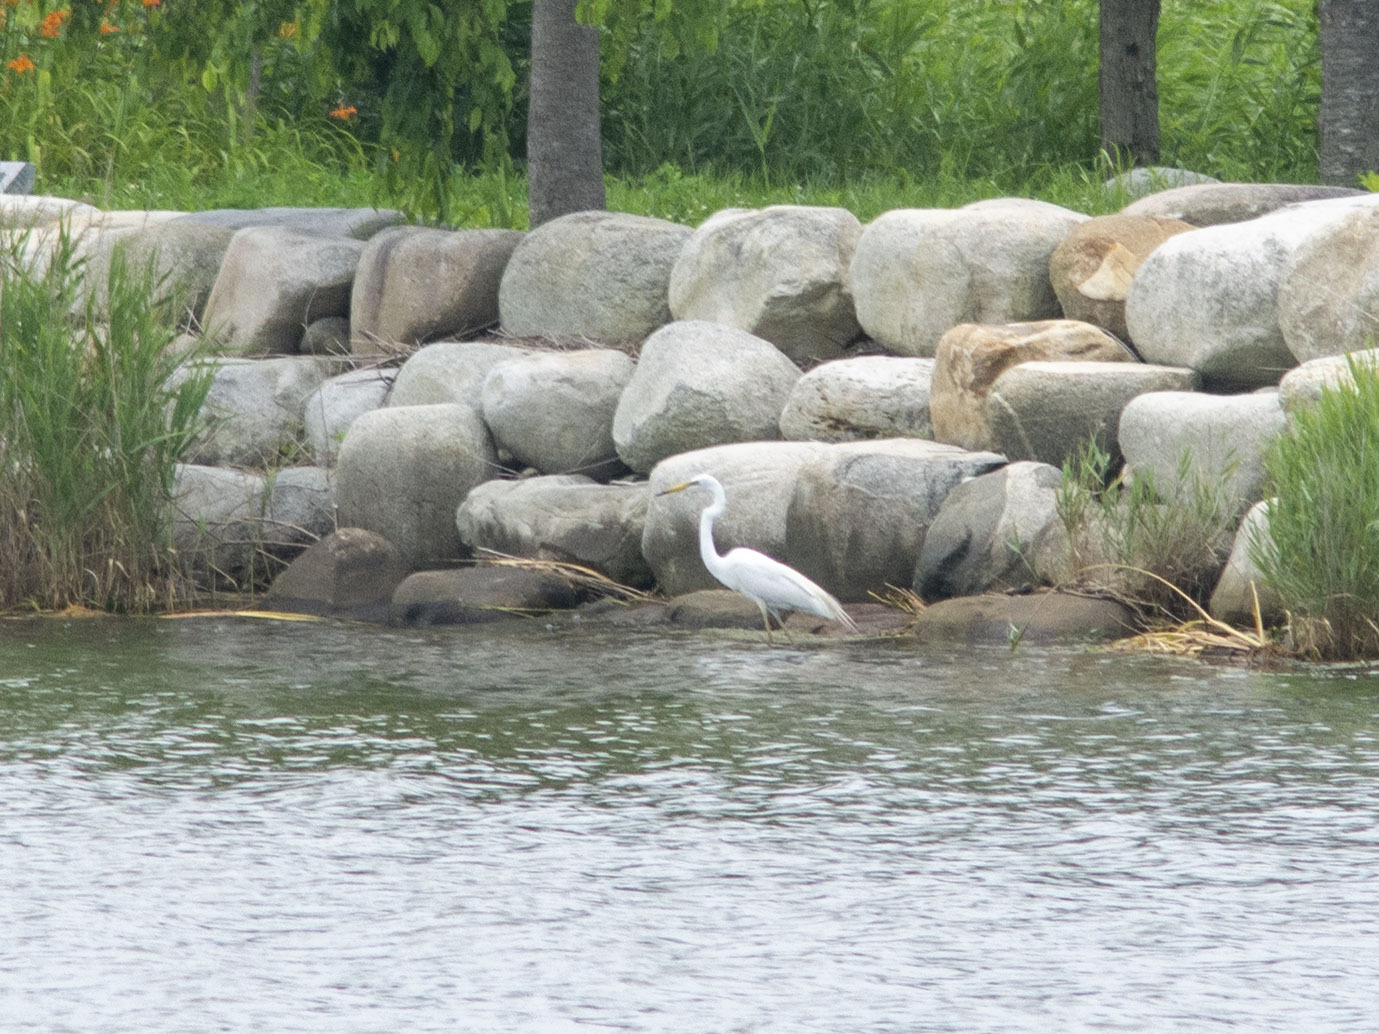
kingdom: Animalia
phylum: Chordata
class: Aves
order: Pelecaniformes
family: Ardeidae
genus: Ardea
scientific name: Ardea alba
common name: Great egret
